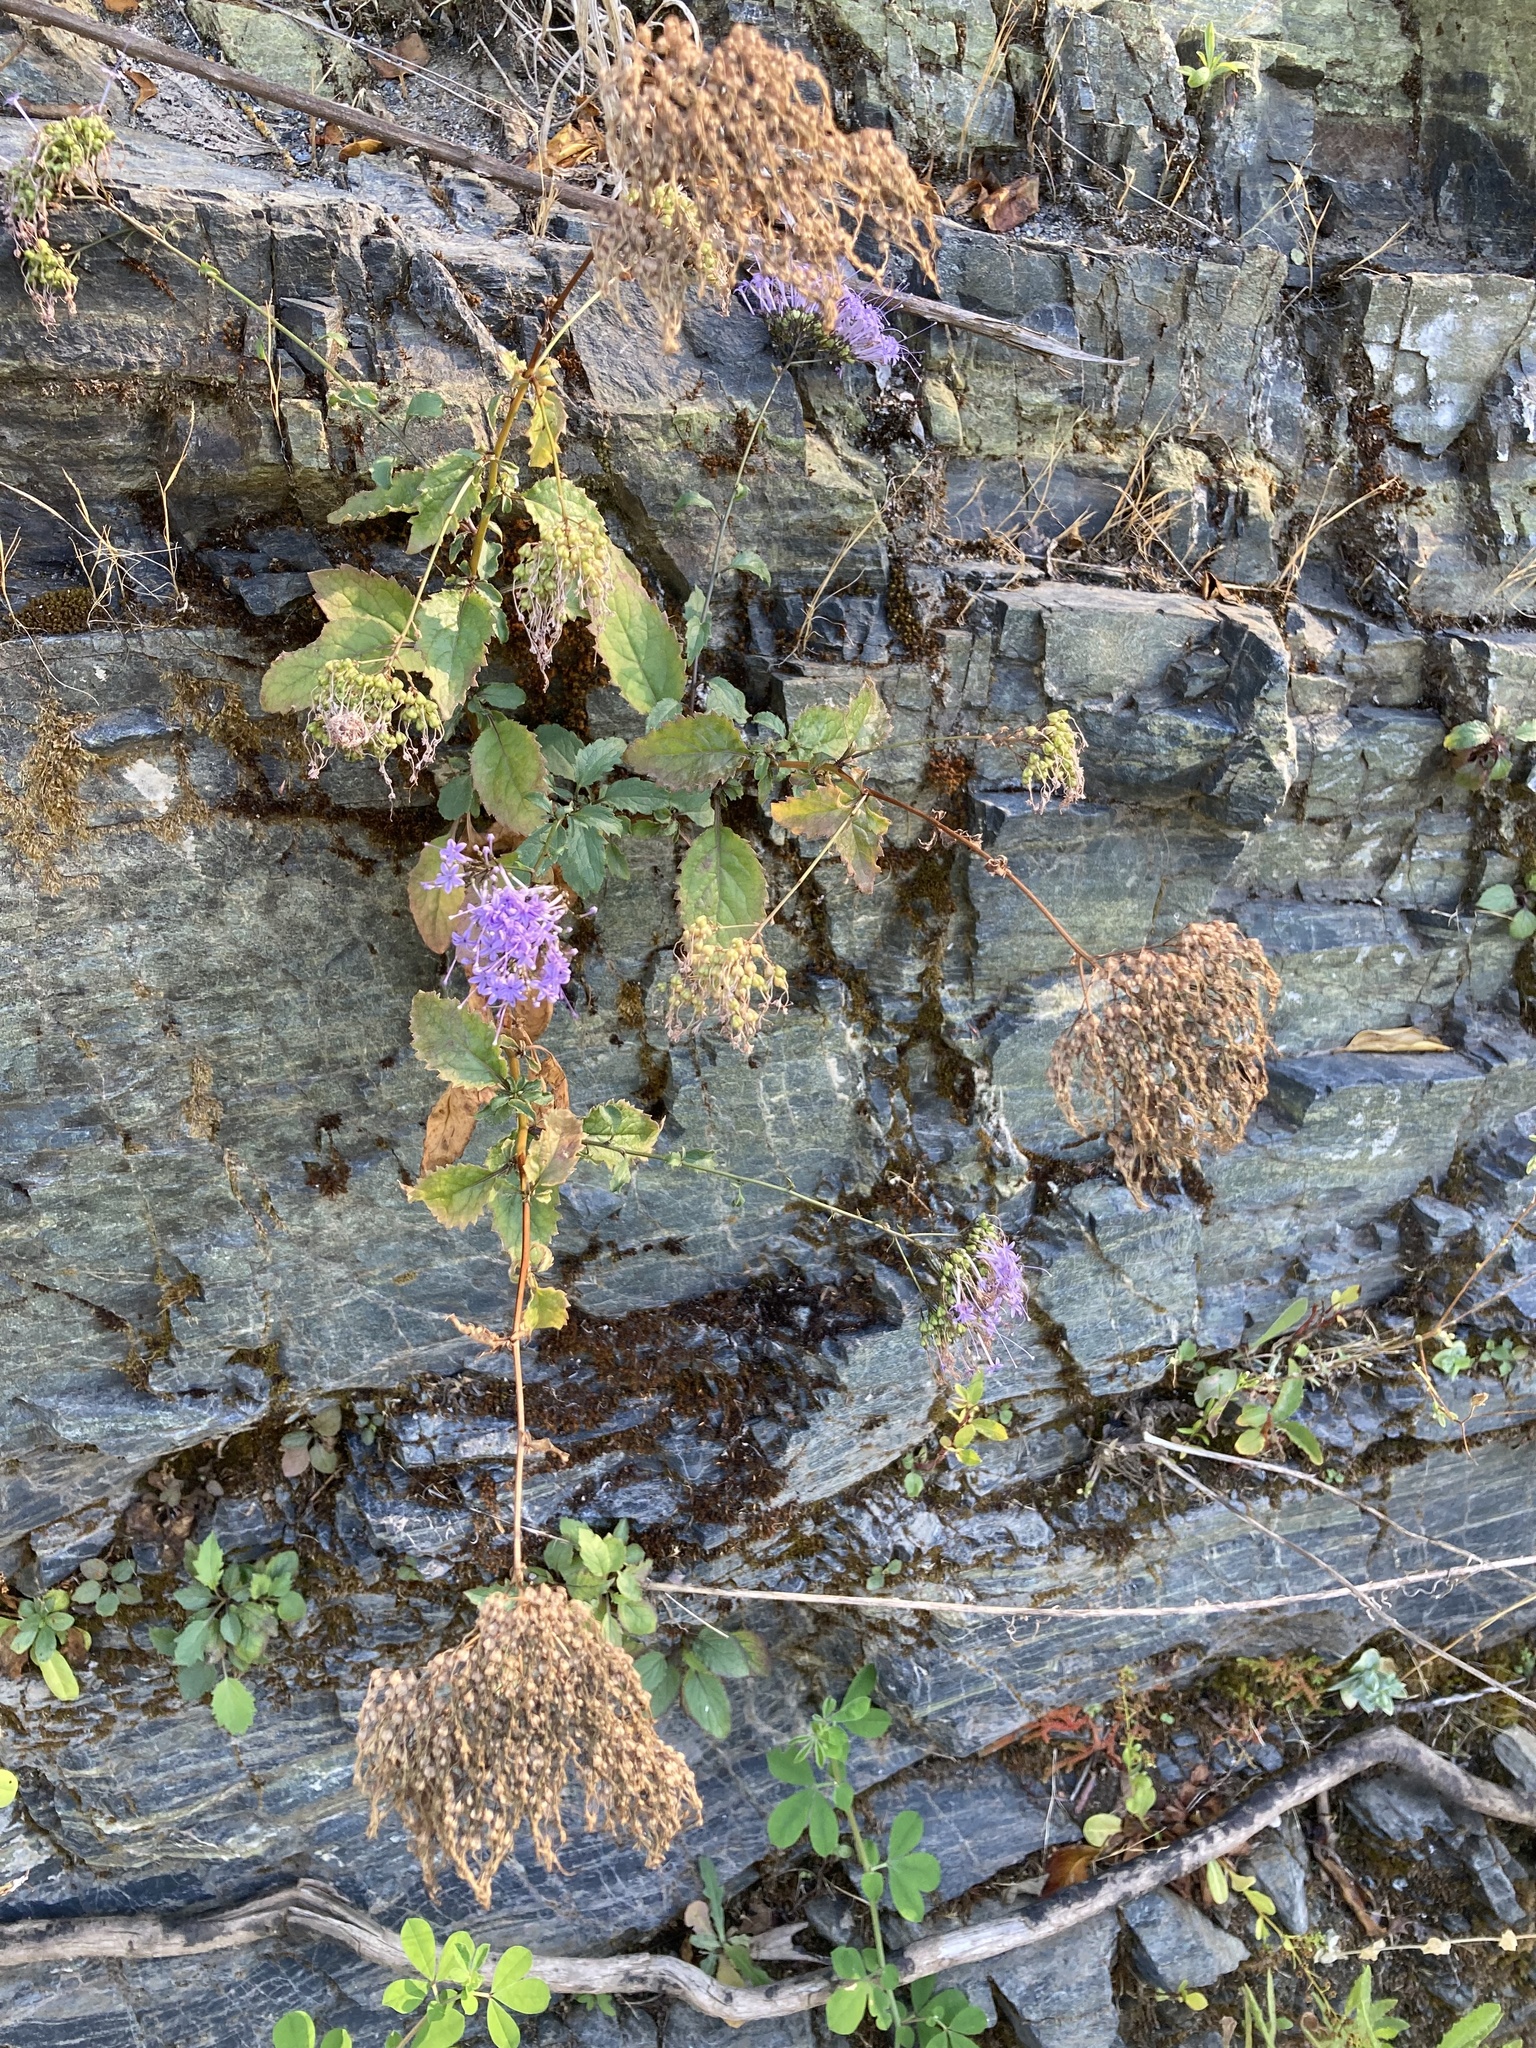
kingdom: Plantae
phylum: Tracheophyta
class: Magnoliopsida
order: Asterales
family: Campanulaceae
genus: Trachelium
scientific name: Trachelium caeruleum
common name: Throatwort
